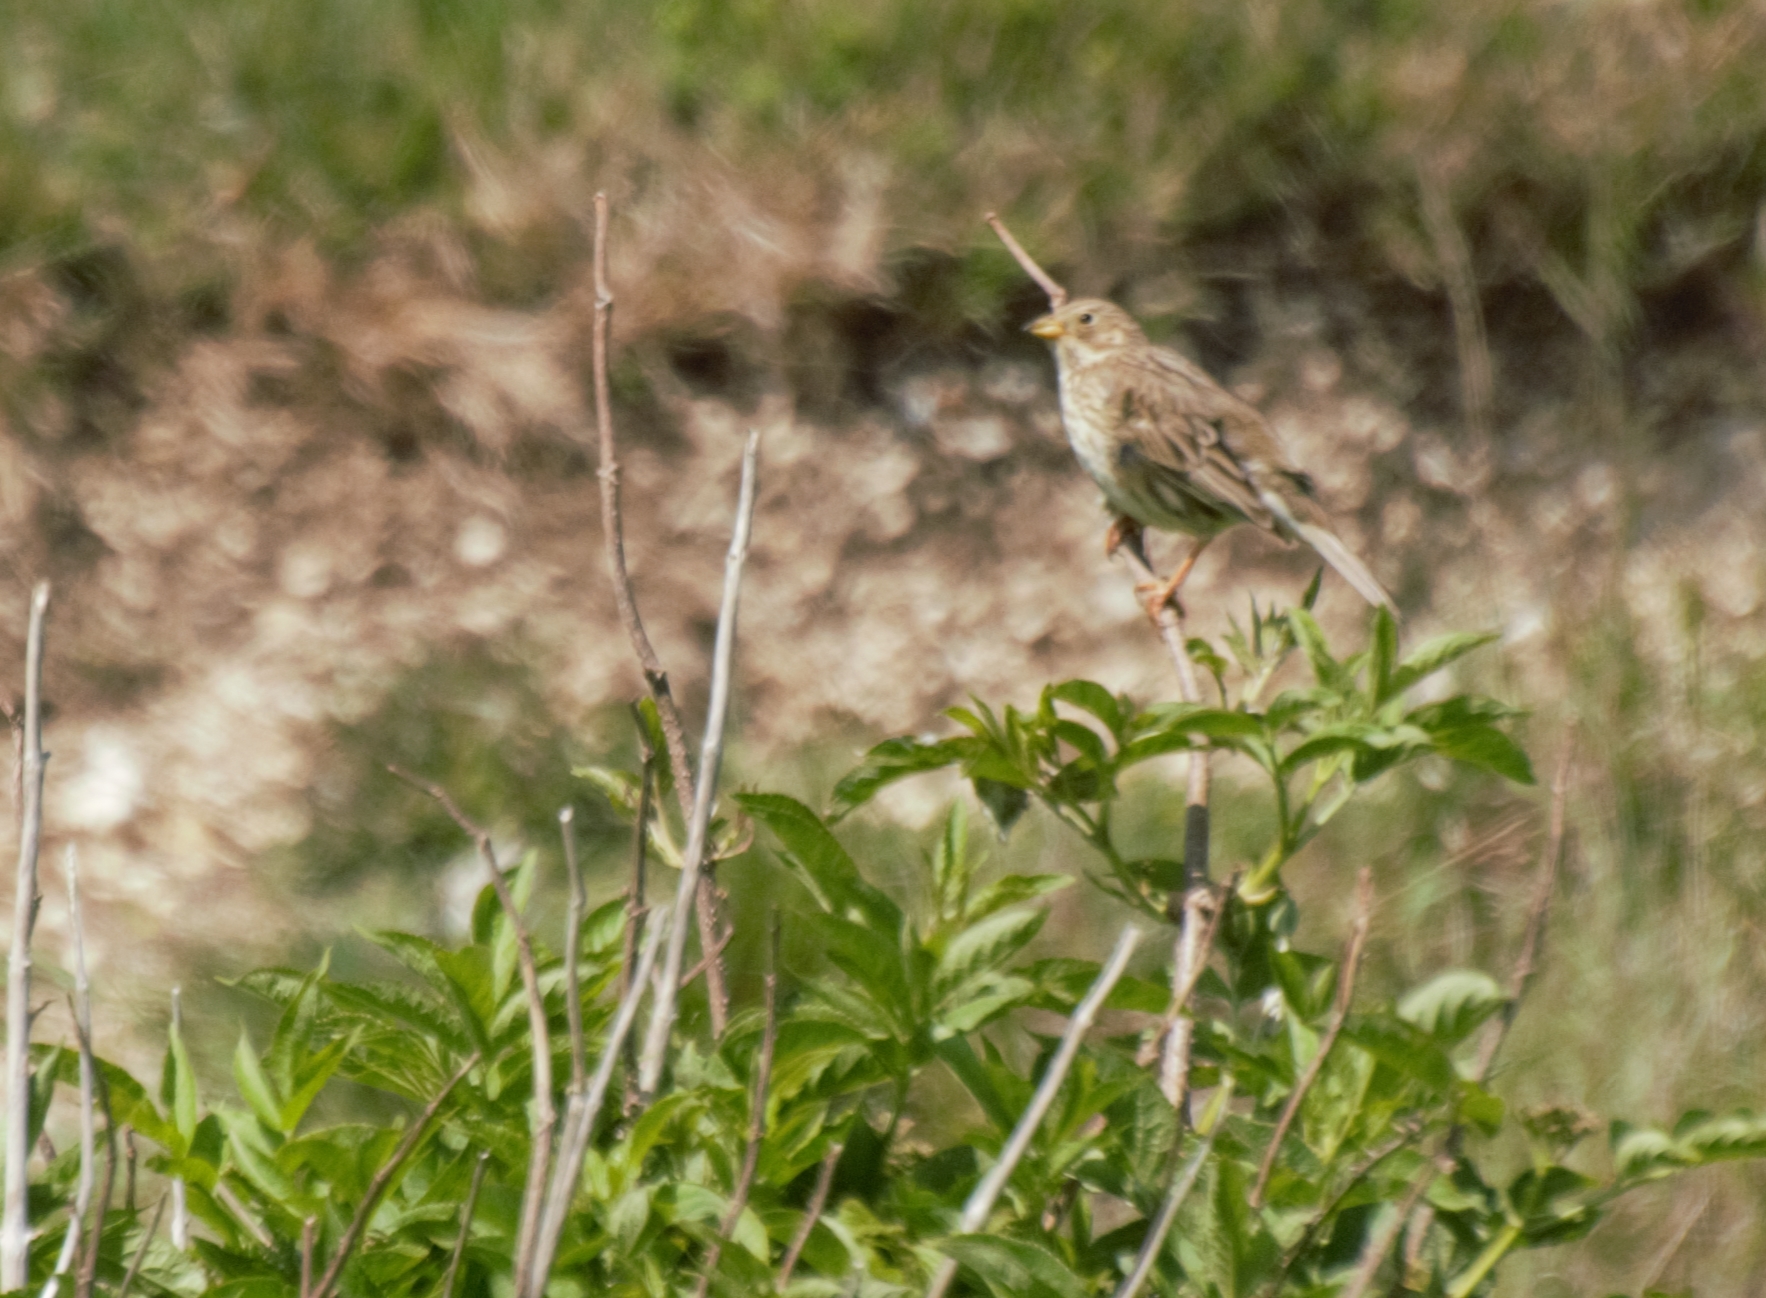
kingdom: Animalia
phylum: Chordata
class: Aves
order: Passeriformes
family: Emberizidae
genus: Emberiza
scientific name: Emberiza calandra
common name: Corn bunting
